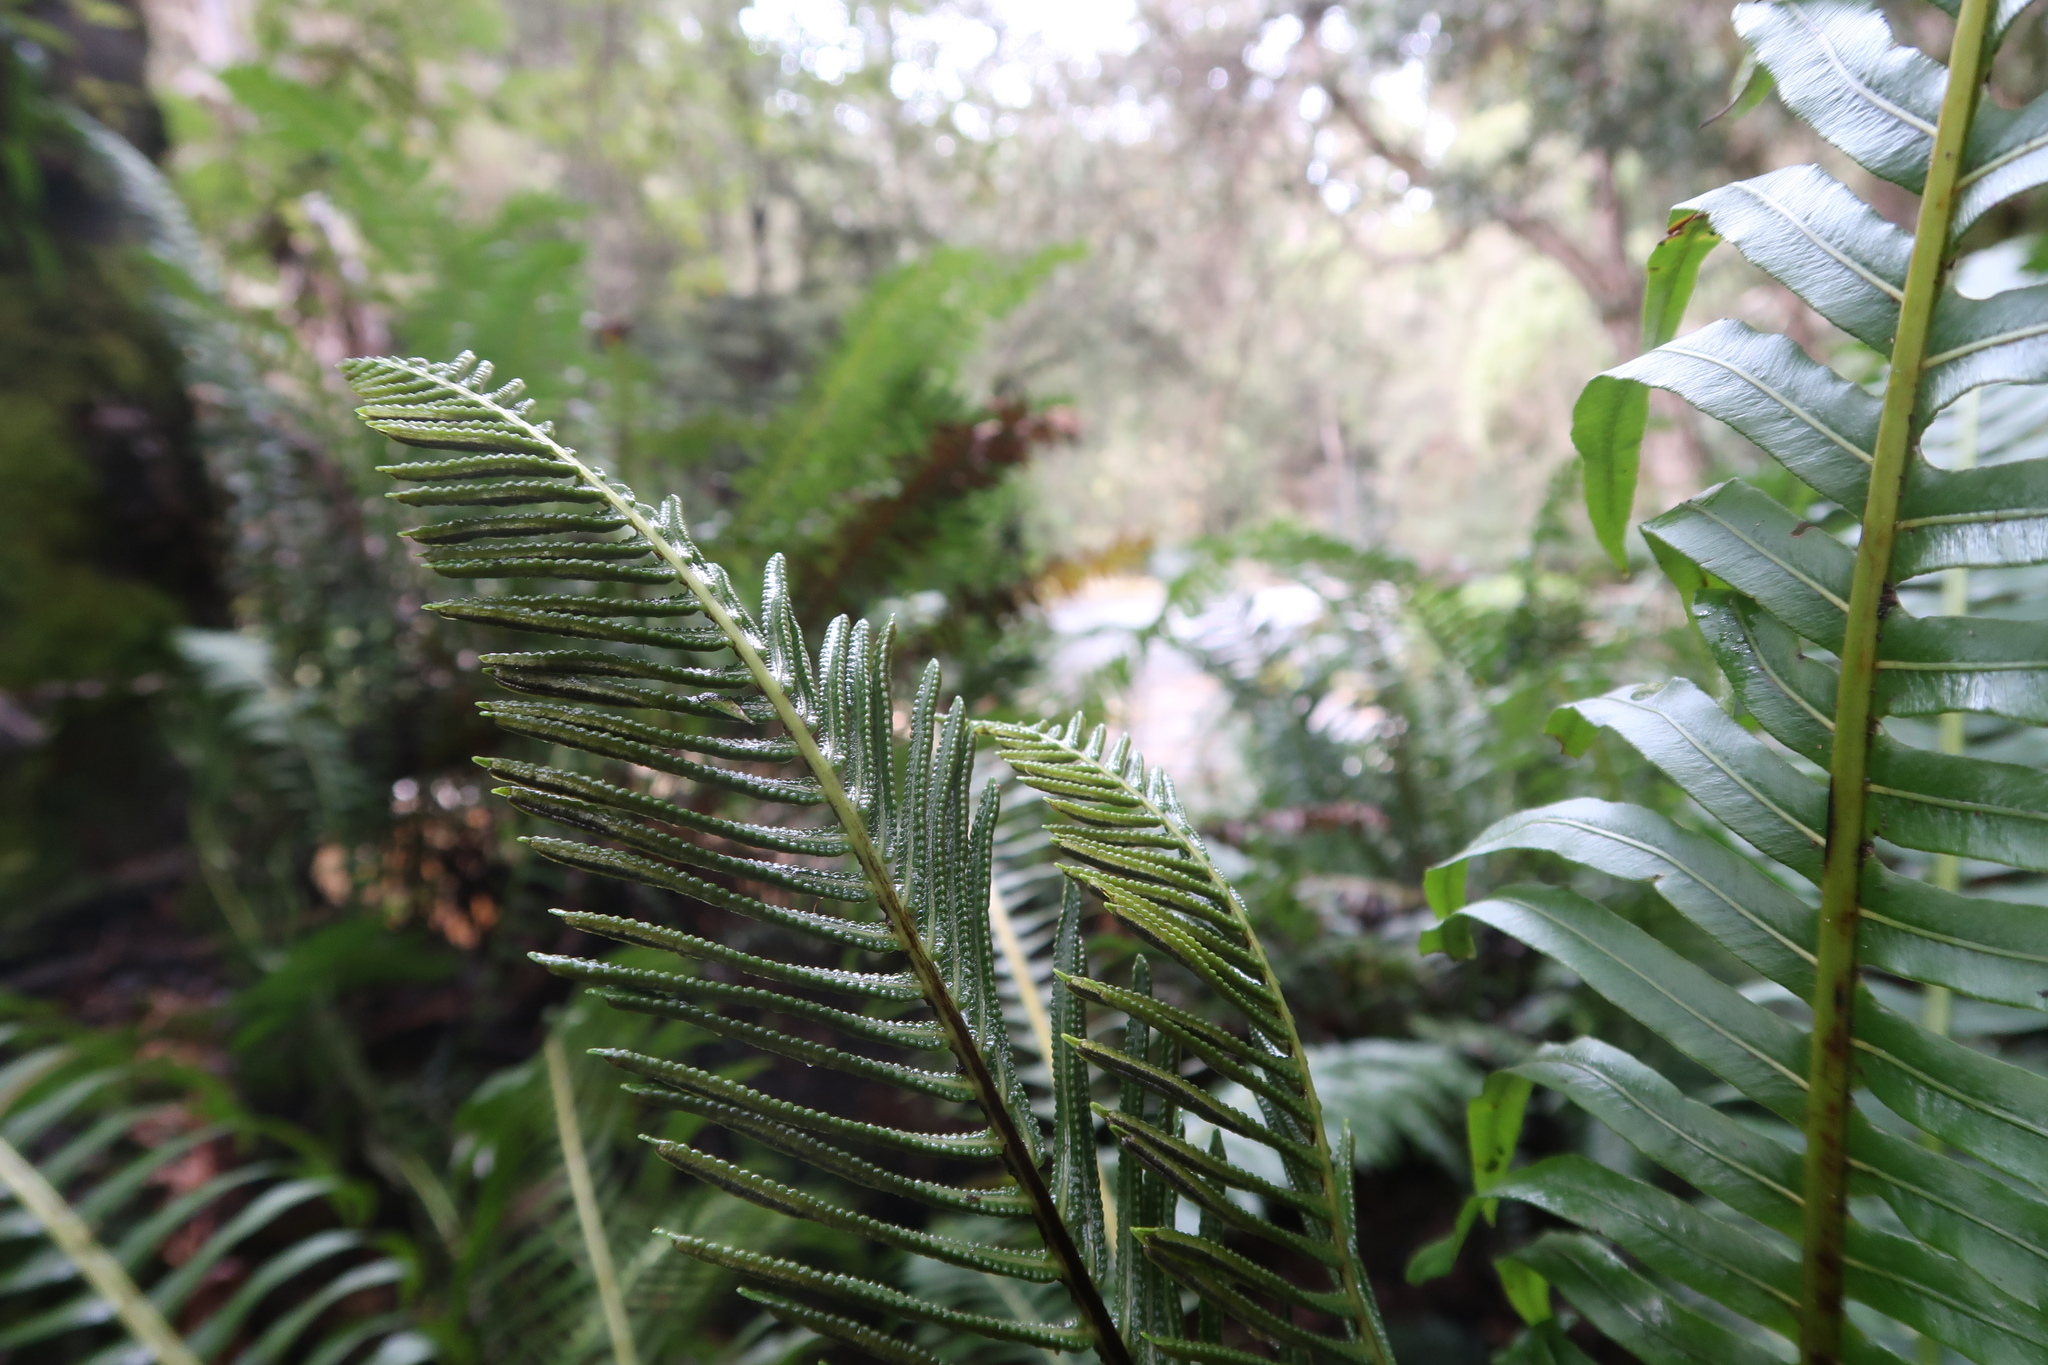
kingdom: Plantae
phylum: Tracheophyta
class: Polypodiopsida
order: Polypodiales
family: Blechnaceae
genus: Lomaria
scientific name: Lomaria nuda
